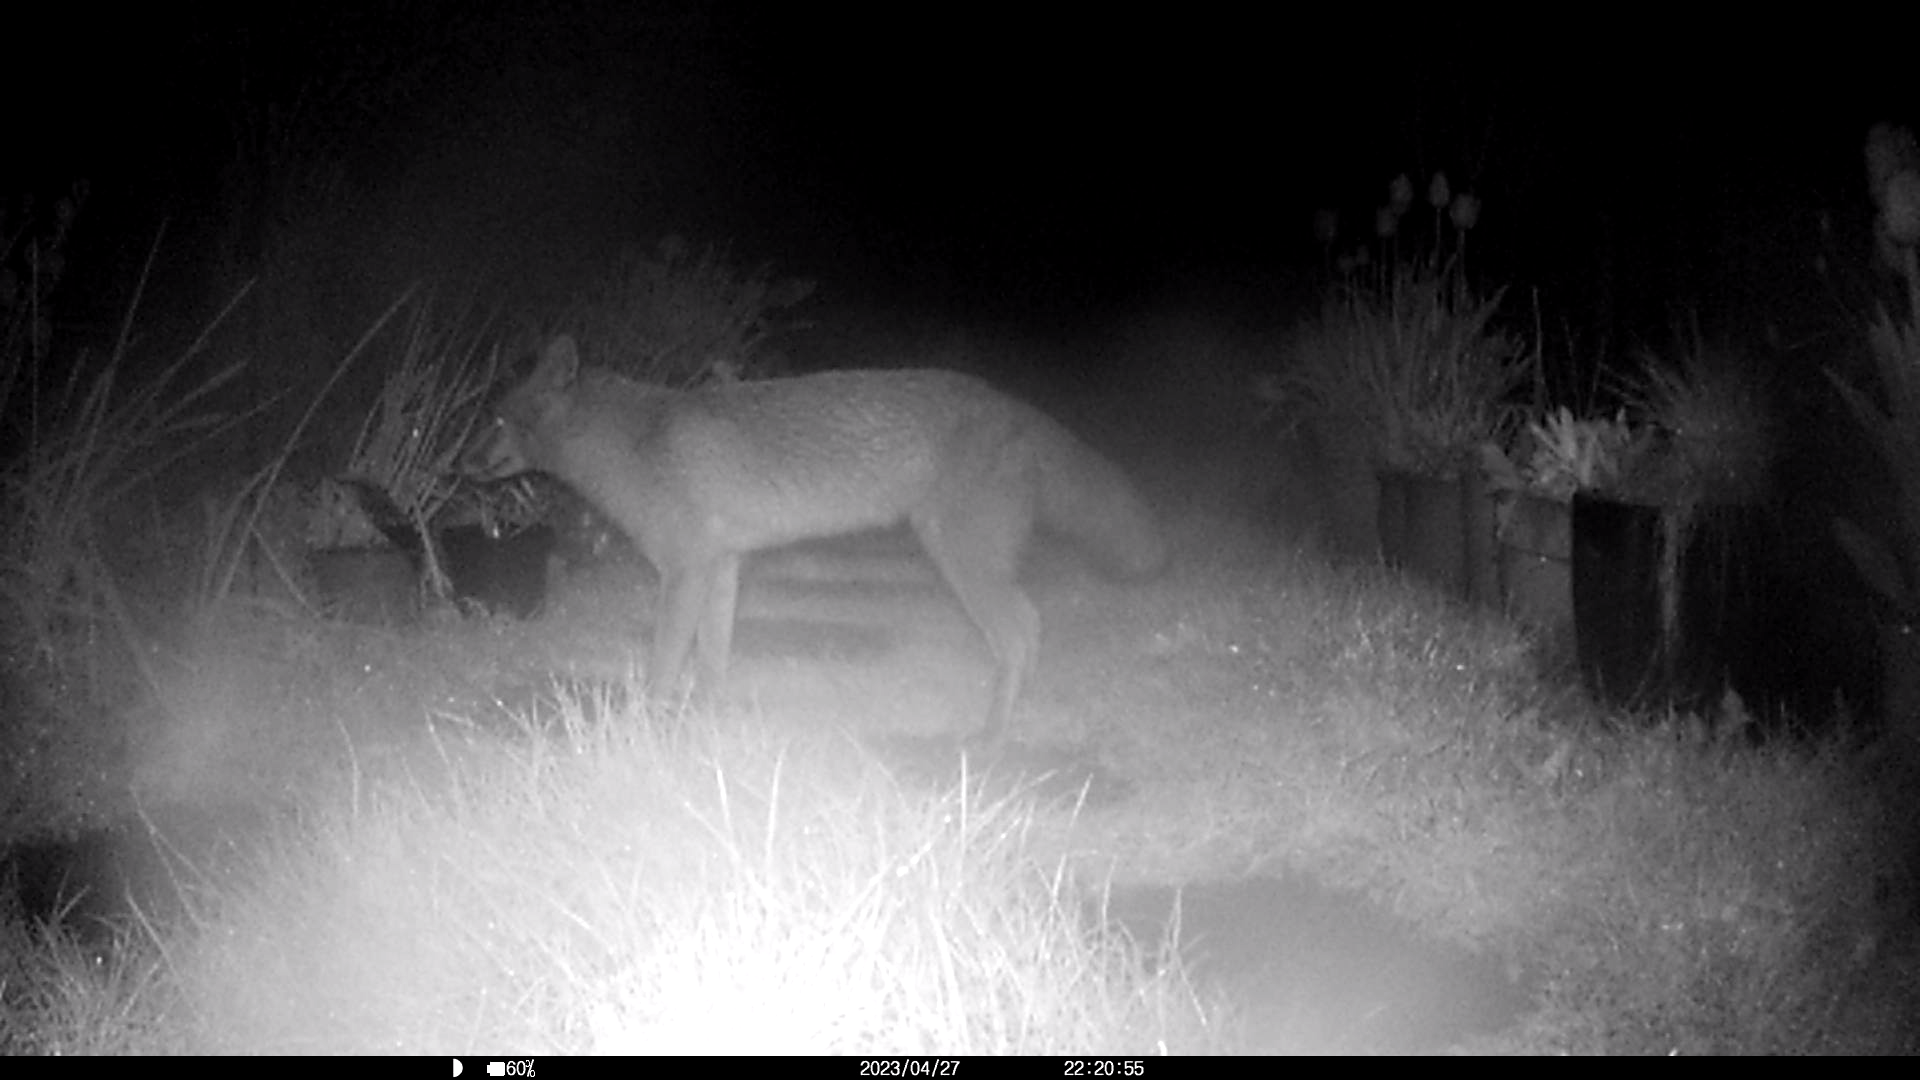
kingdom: Animalia
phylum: Chordata
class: Mammalia
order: Carnivora
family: Canidae
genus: Vulpes
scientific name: Vulpes vulpes
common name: Red fox
